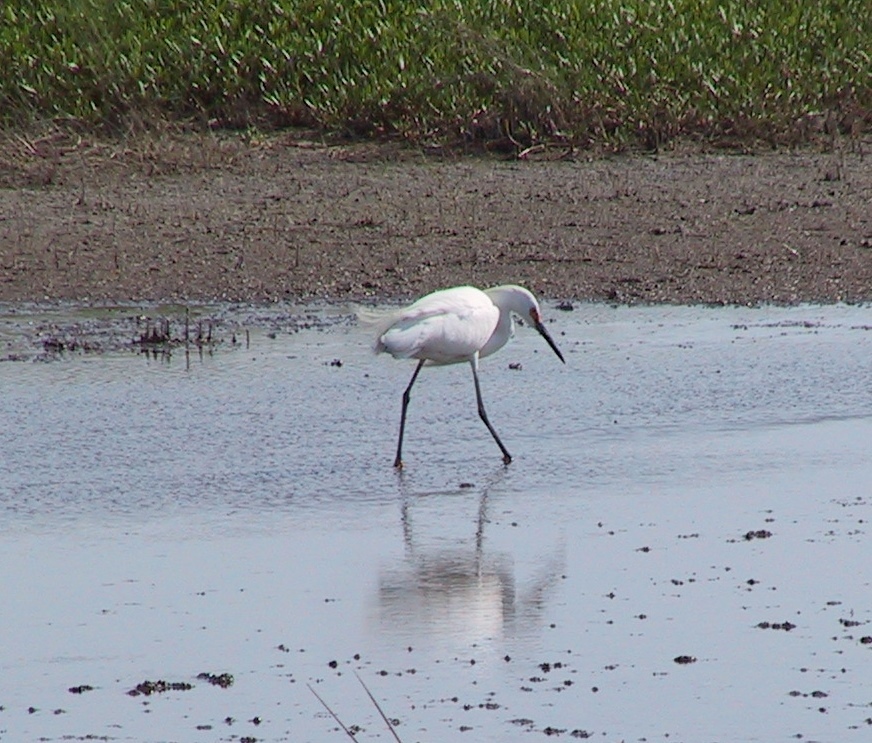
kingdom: Animalia
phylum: Chordata
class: Aves
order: Pelecaniformes
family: Ardeidae
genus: Egretta
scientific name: Egretta thula
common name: Snowy egret
